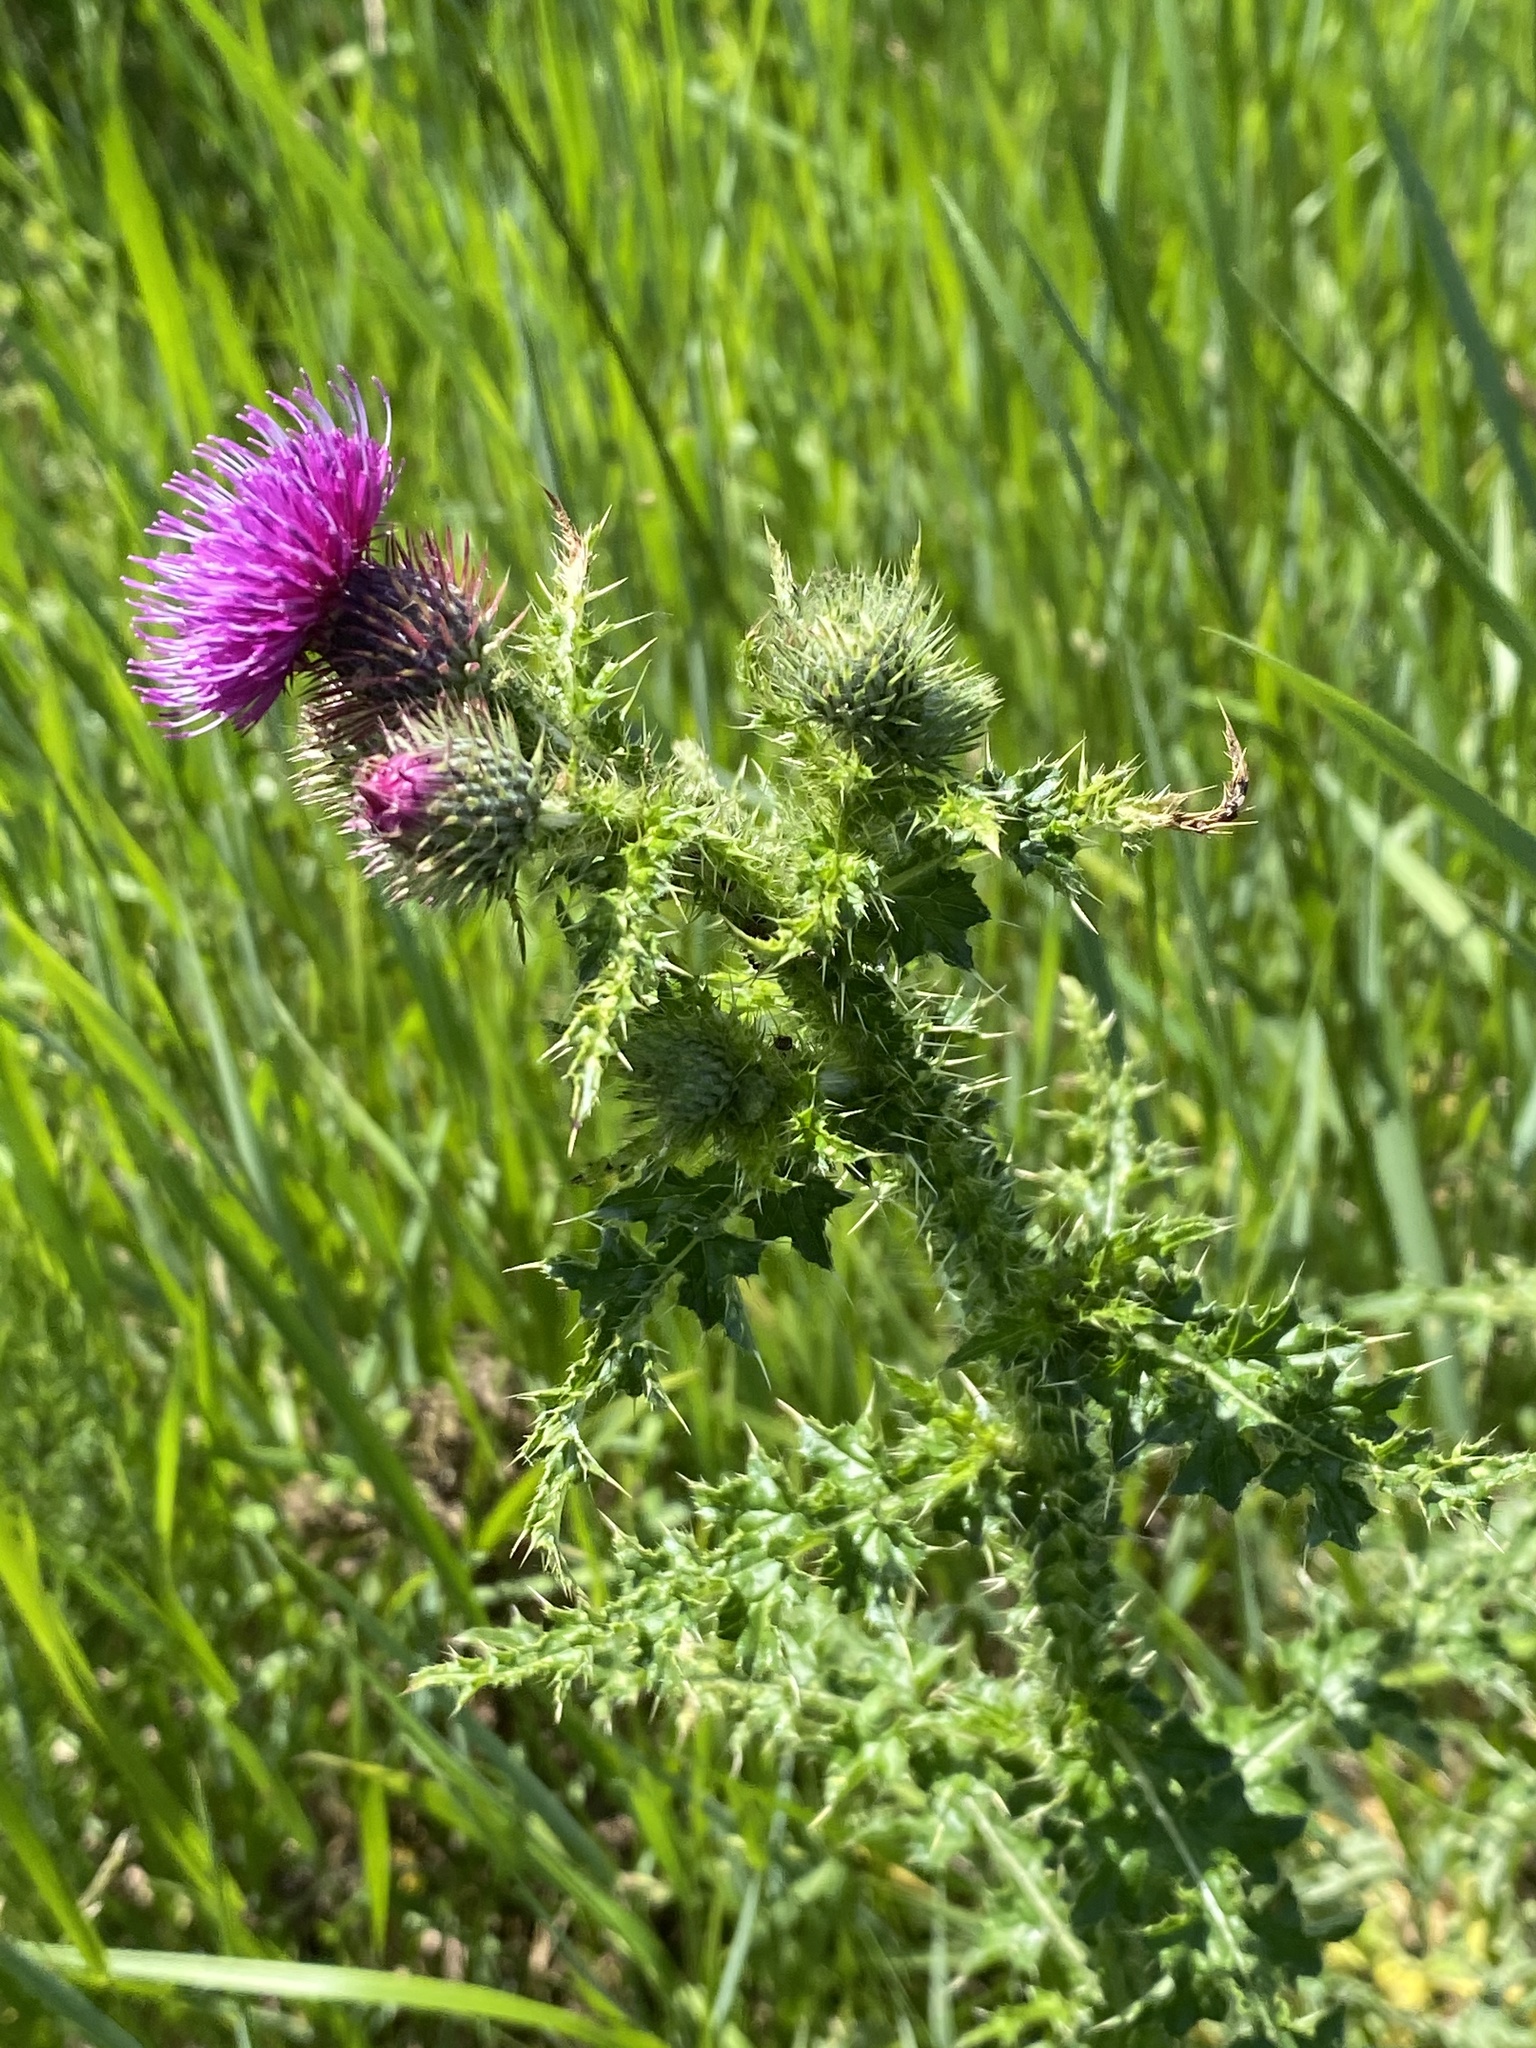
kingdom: Plantae
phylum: Tracheophyta
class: Magnoliopsida
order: Asterales
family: Asteraceae
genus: Carduus
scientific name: Carduus crispus
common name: Welted thistle
